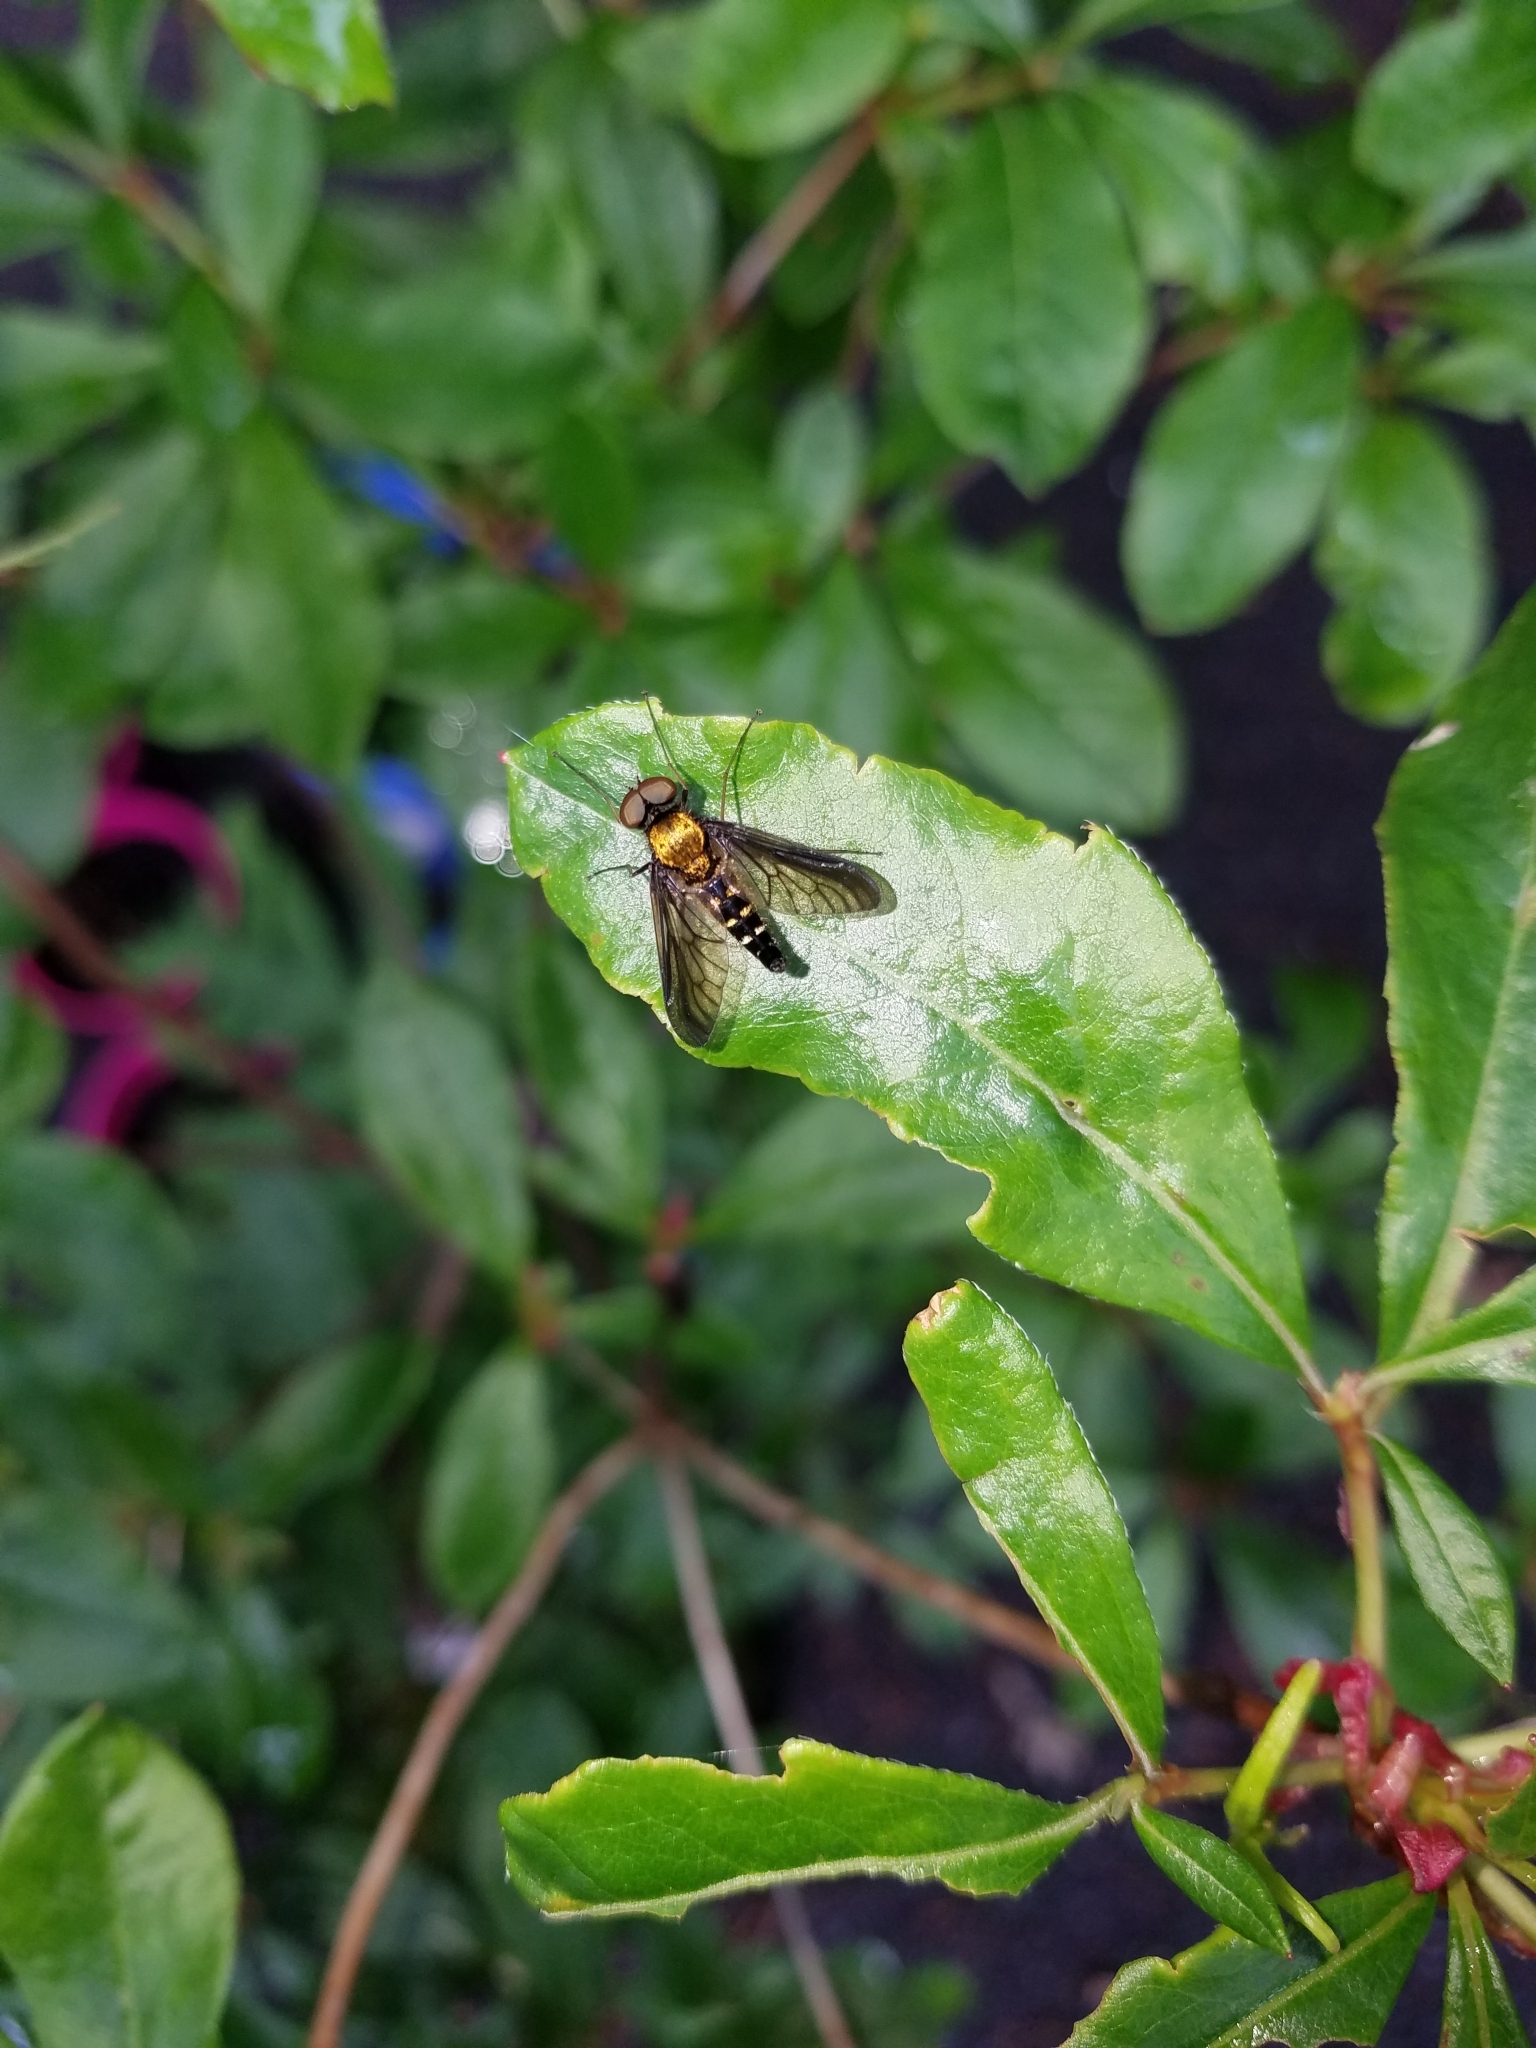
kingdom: Animalia
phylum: Arthropoda
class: Insecta
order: Diptera
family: Rhagionidae
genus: Chrysopilus
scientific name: Chrysopilus thoracicus
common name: Golden-backed snipe fly
